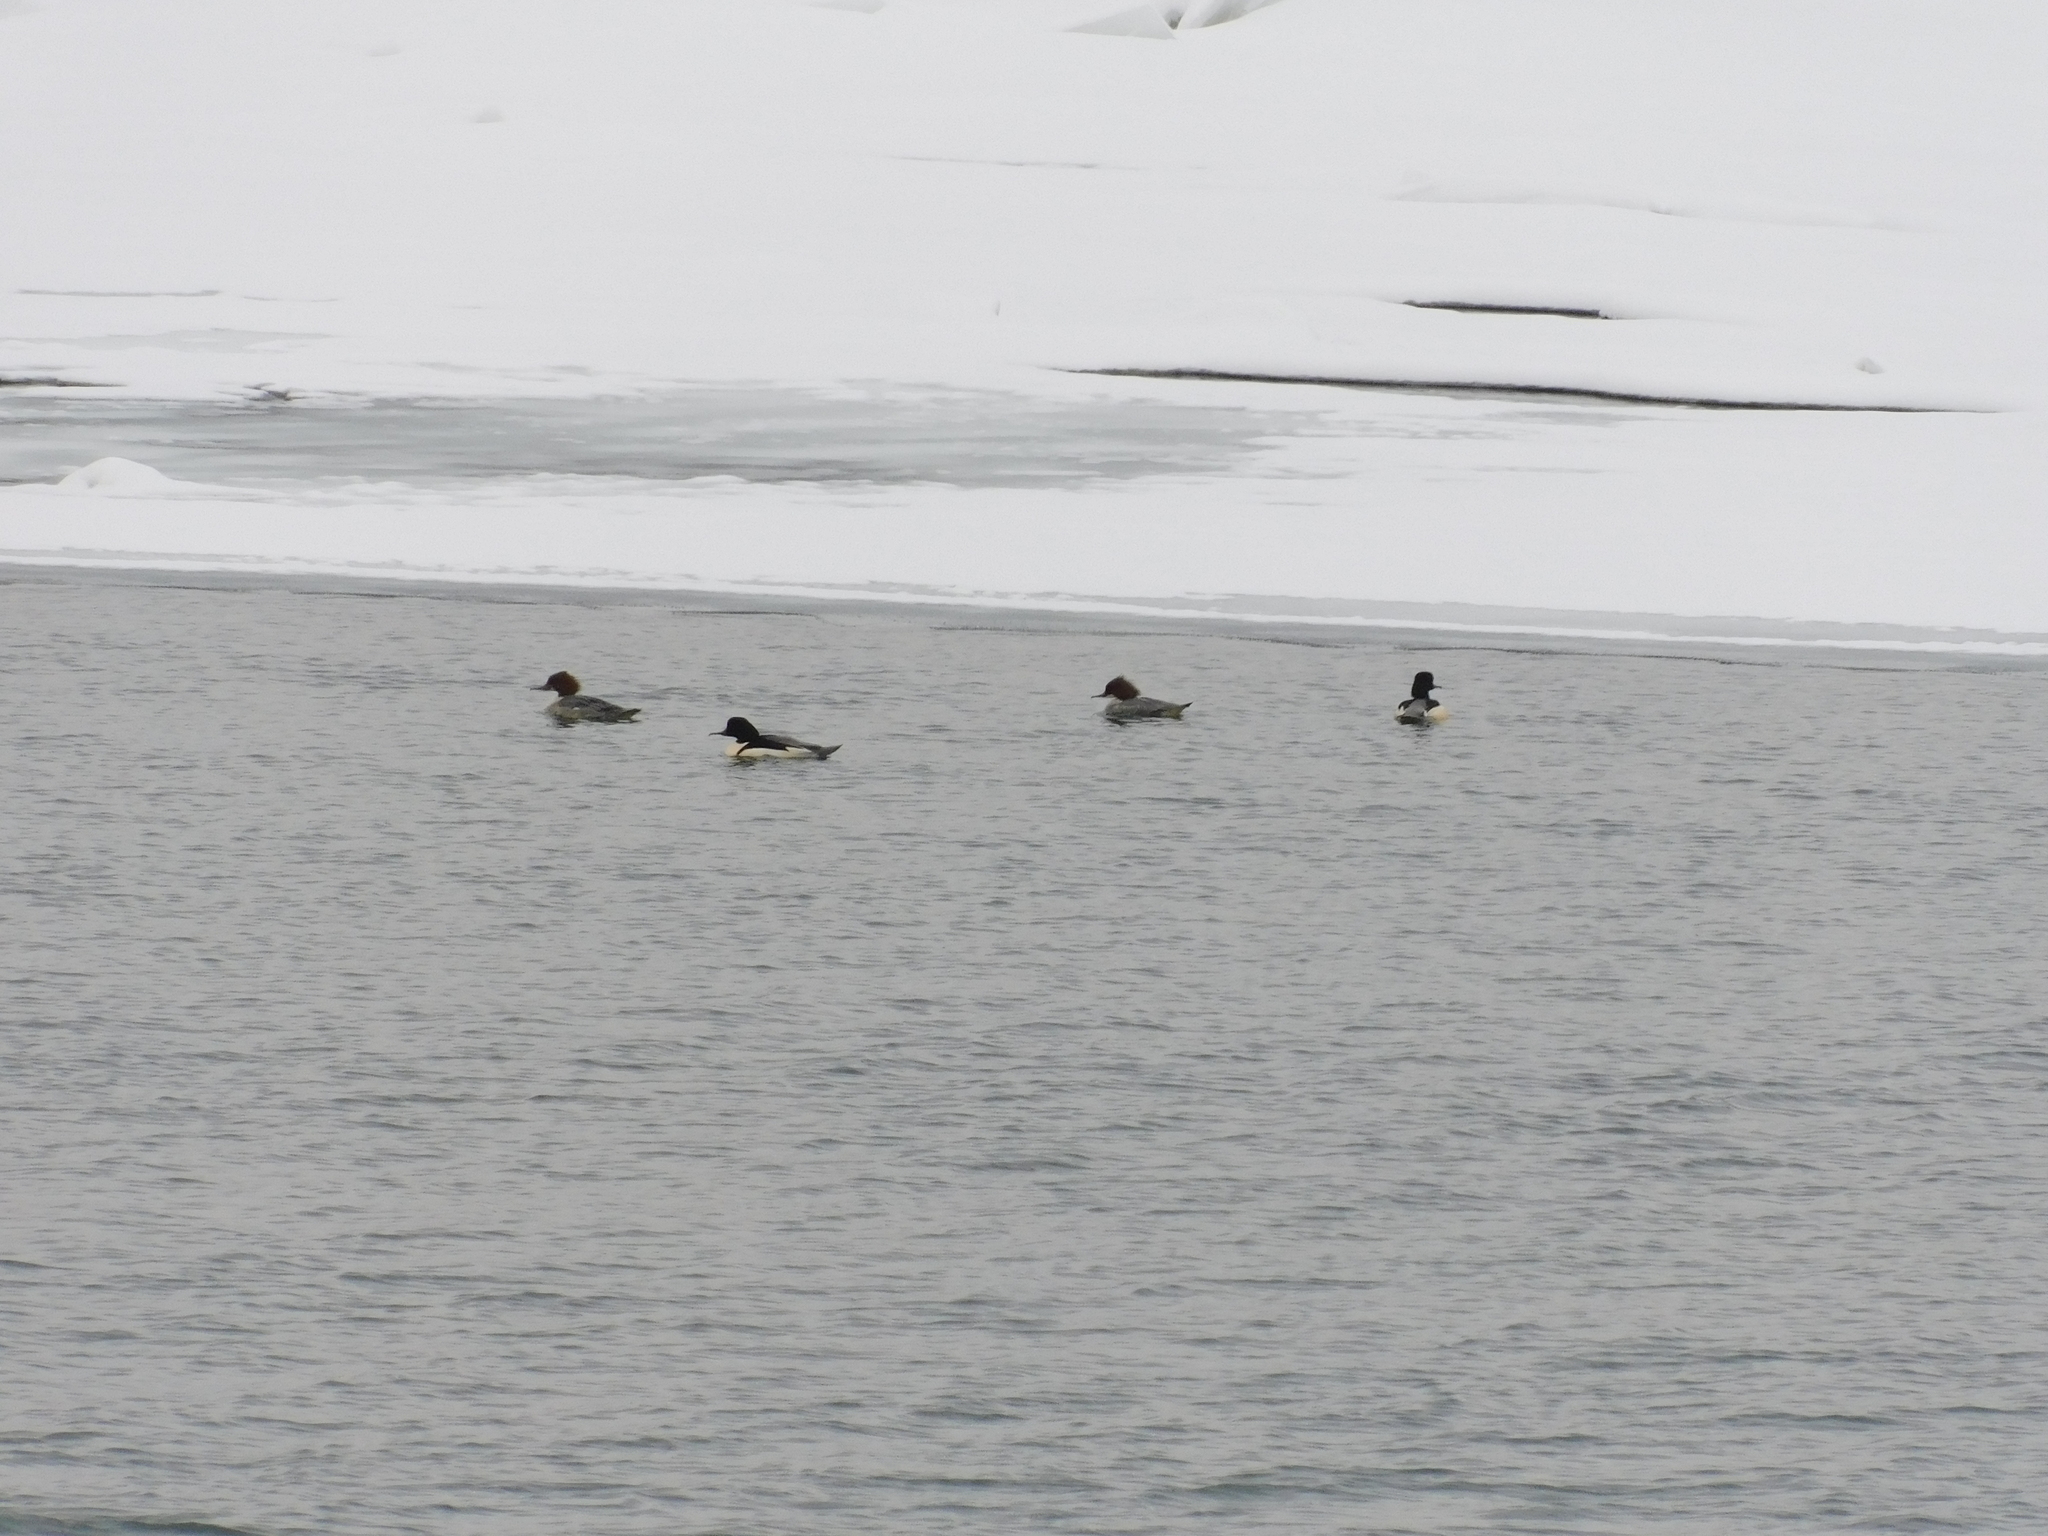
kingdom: Animalia
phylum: Chordata
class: Aves
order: Anseriformes
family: Anatidae
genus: Mergus
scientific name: Mergus merganser
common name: Common merganser
